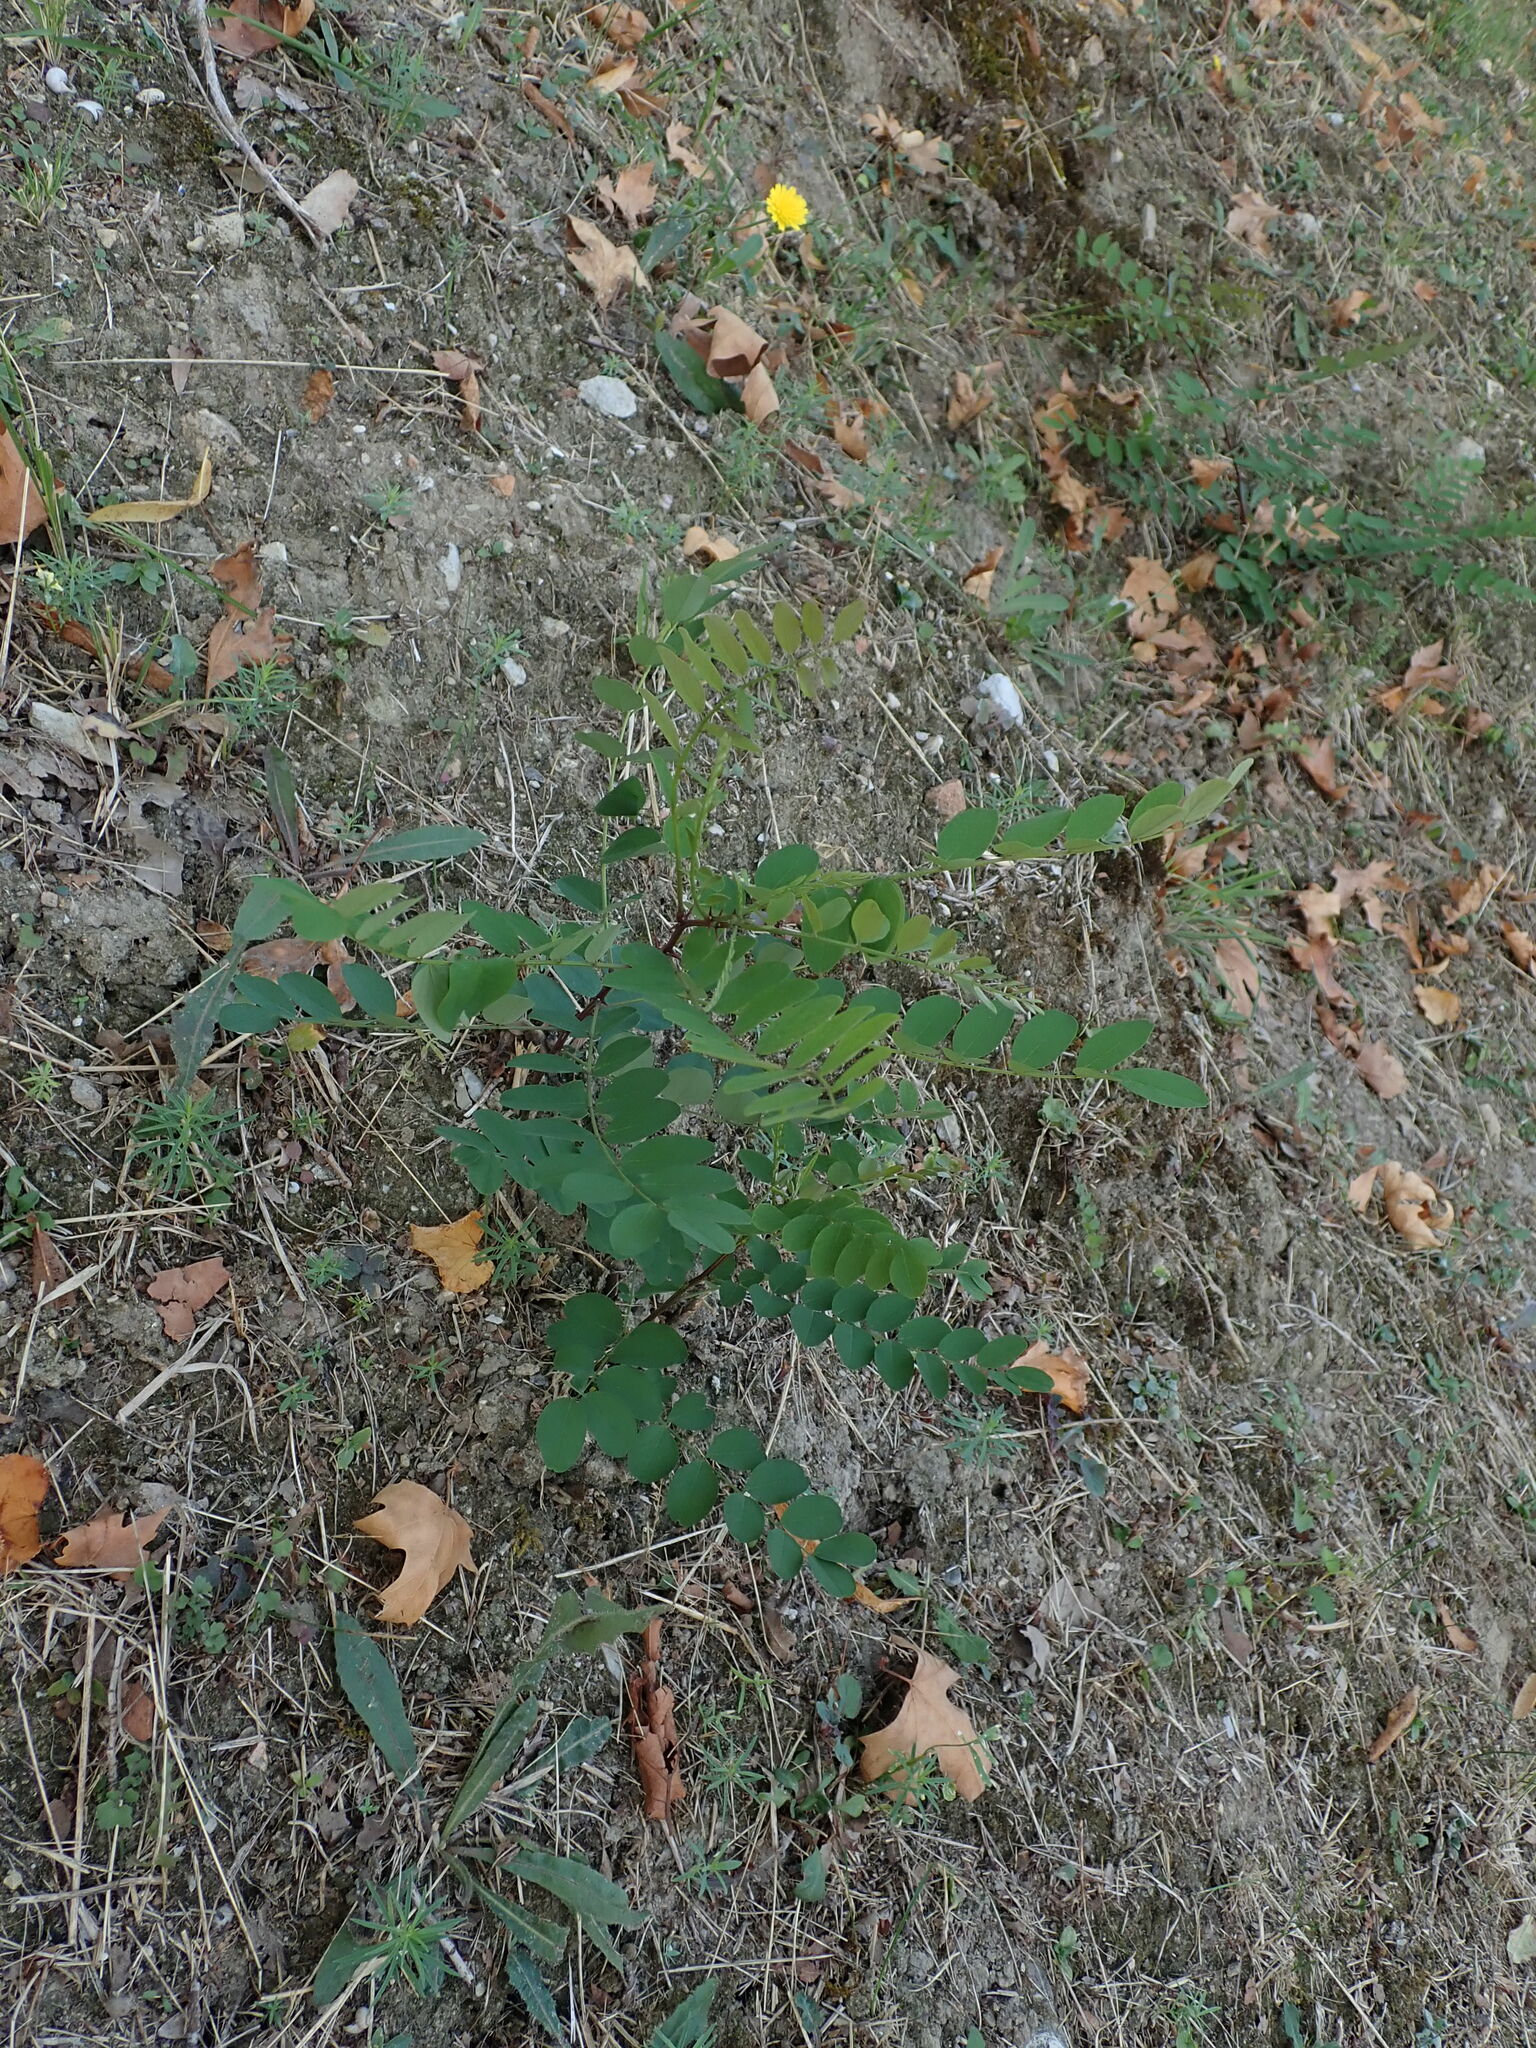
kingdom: Plantae
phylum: Tracheophyta
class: Magnoliopsida
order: Fabales
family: Fabaceae
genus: Robinia
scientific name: Robinia pseudoacacia
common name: Black locust
